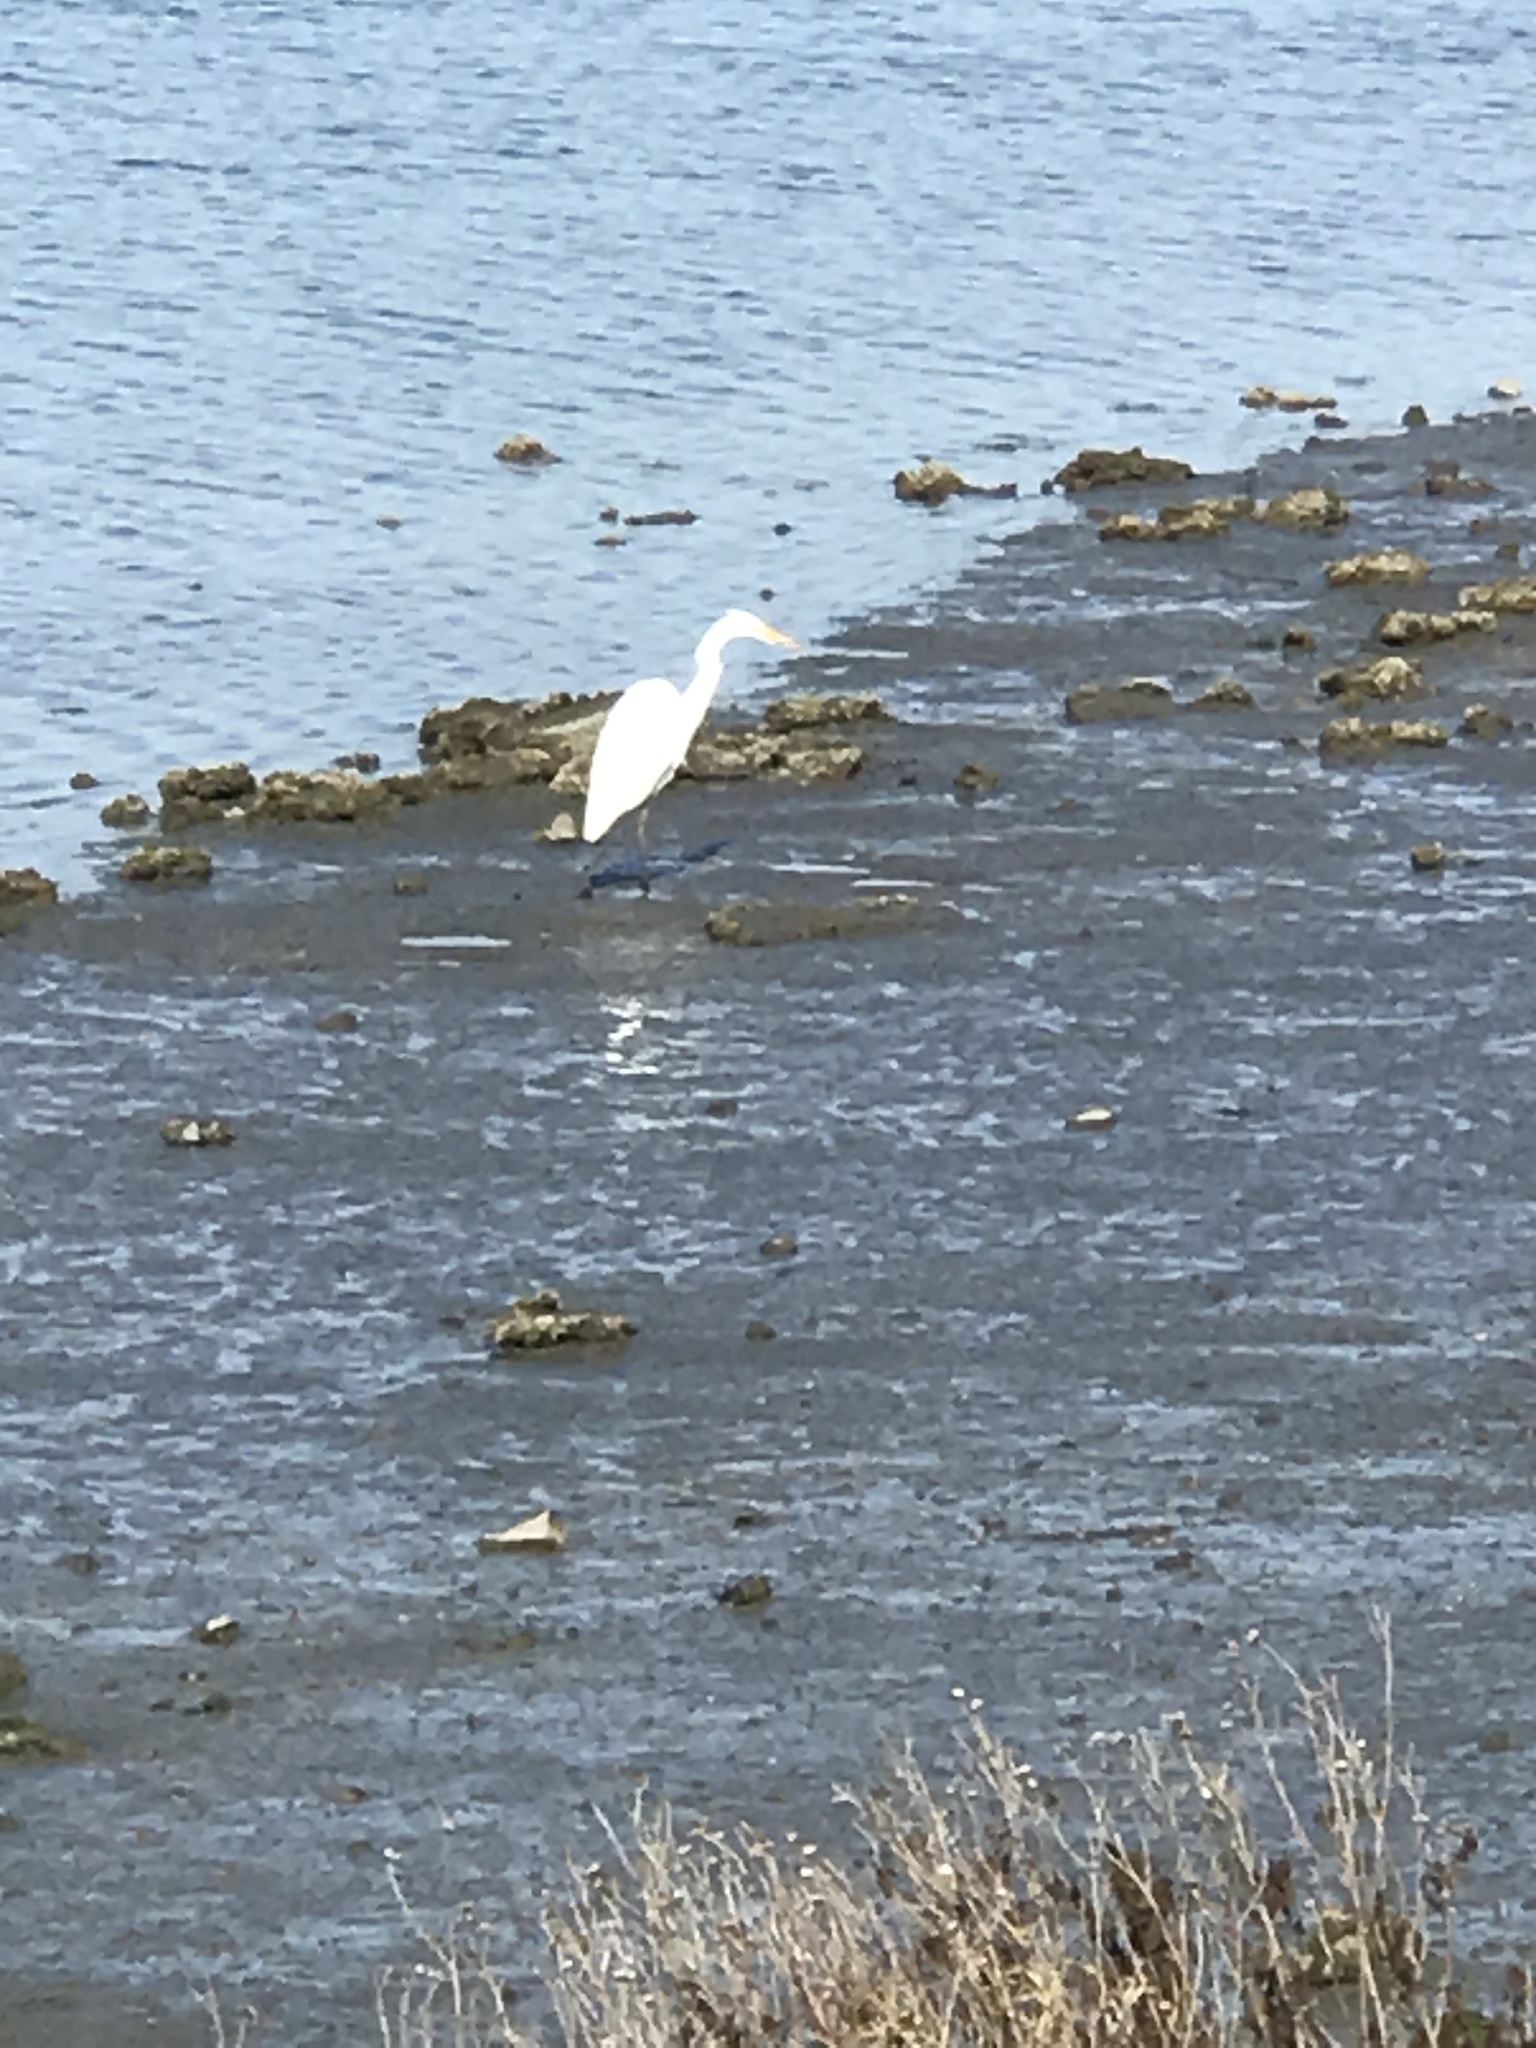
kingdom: Animalia
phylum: Chordata
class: Aves
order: Pelecaniformes
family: Ardeidae
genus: Ardea
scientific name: Ardea alba
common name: Great egret
